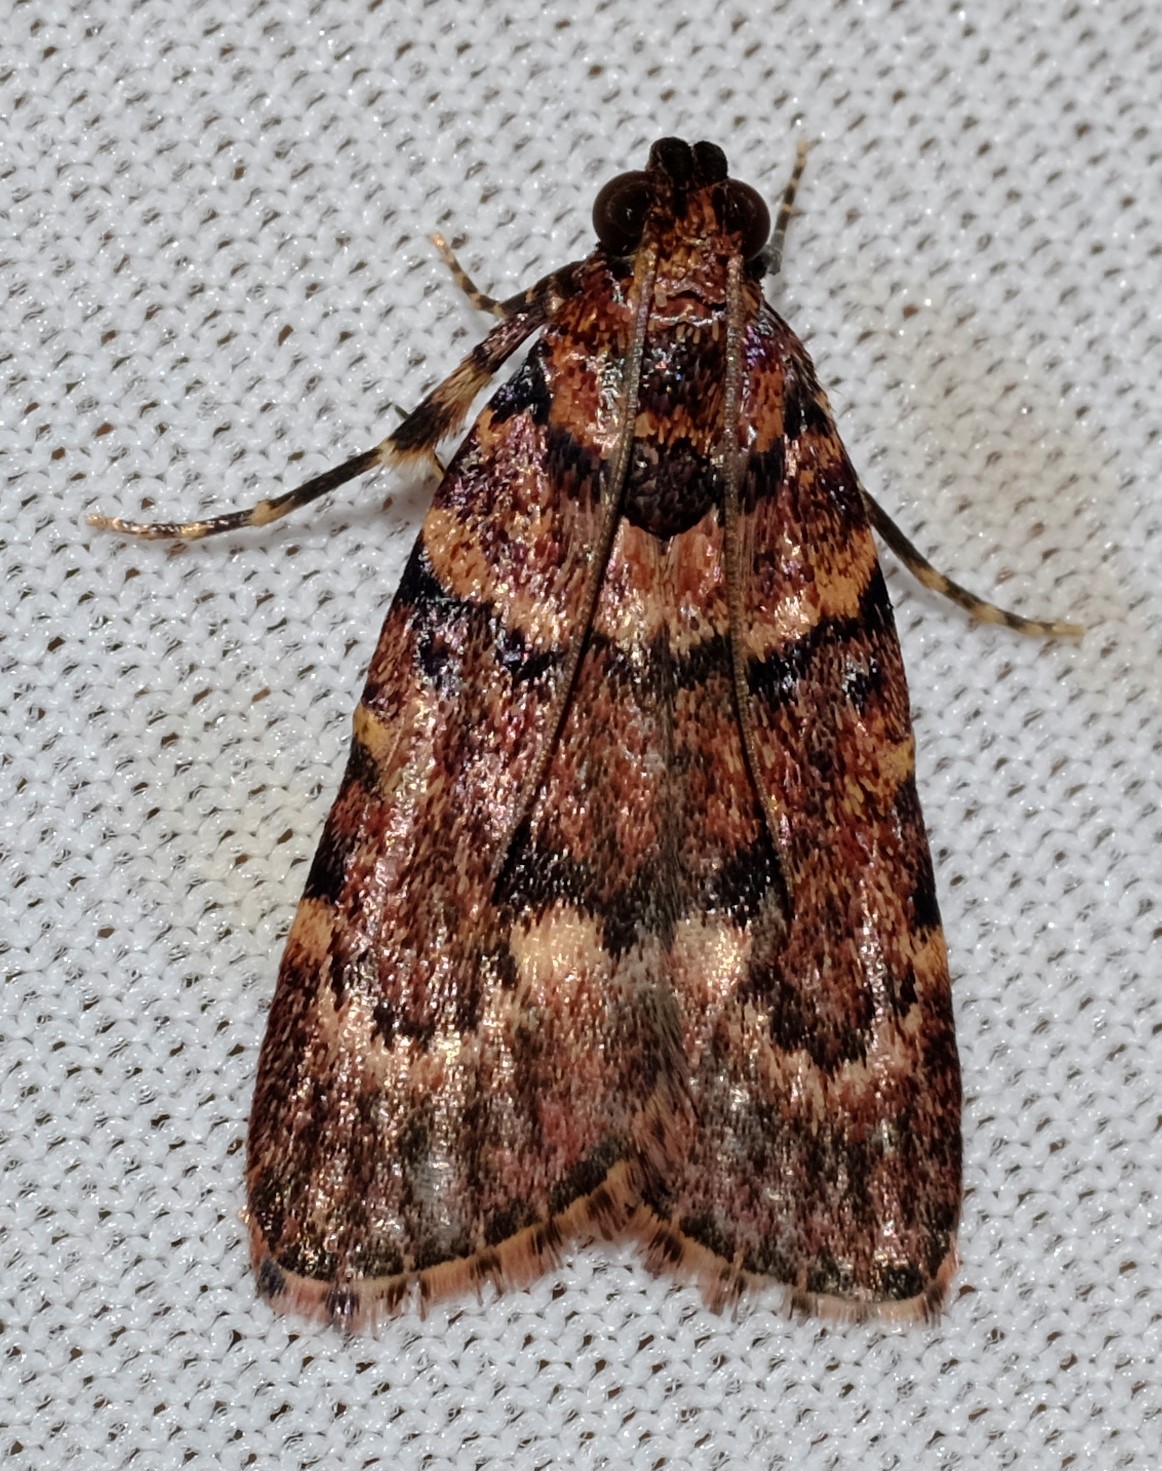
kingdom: Animalia
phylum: Arthropoda
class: Insecta
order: Lepidoptera
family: Pyralidae
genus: Mimaglossa
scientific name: Mimaglossa nauplialis
